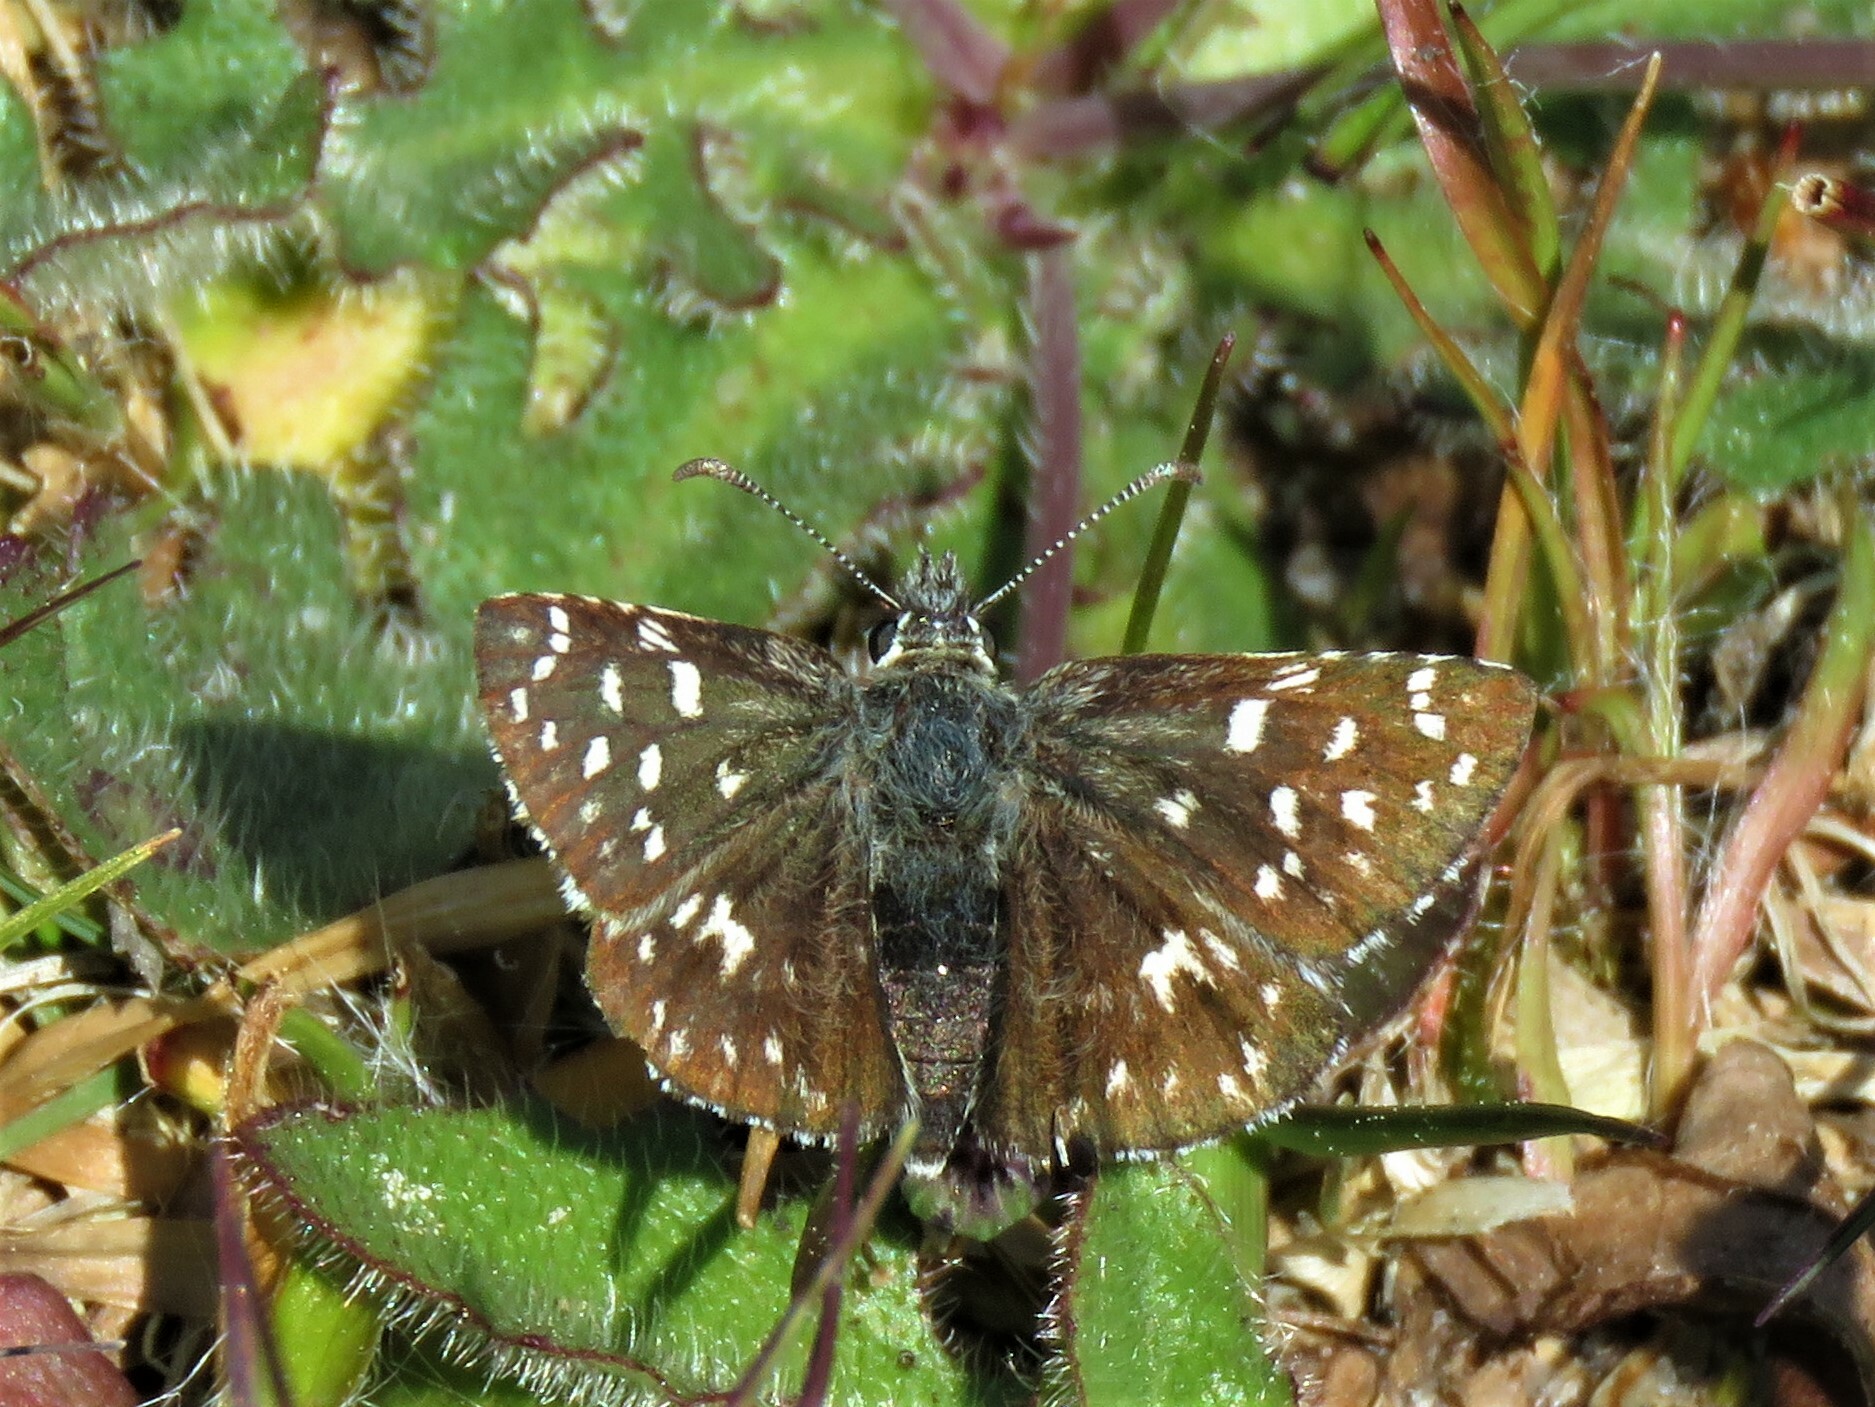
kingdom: Animalia
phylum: Arthropoda
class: Insecta
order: Lepidoptera
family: Hesperiidae
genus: Pyrgus
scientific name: Pyrgus malvae
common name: Grizzled skipper
